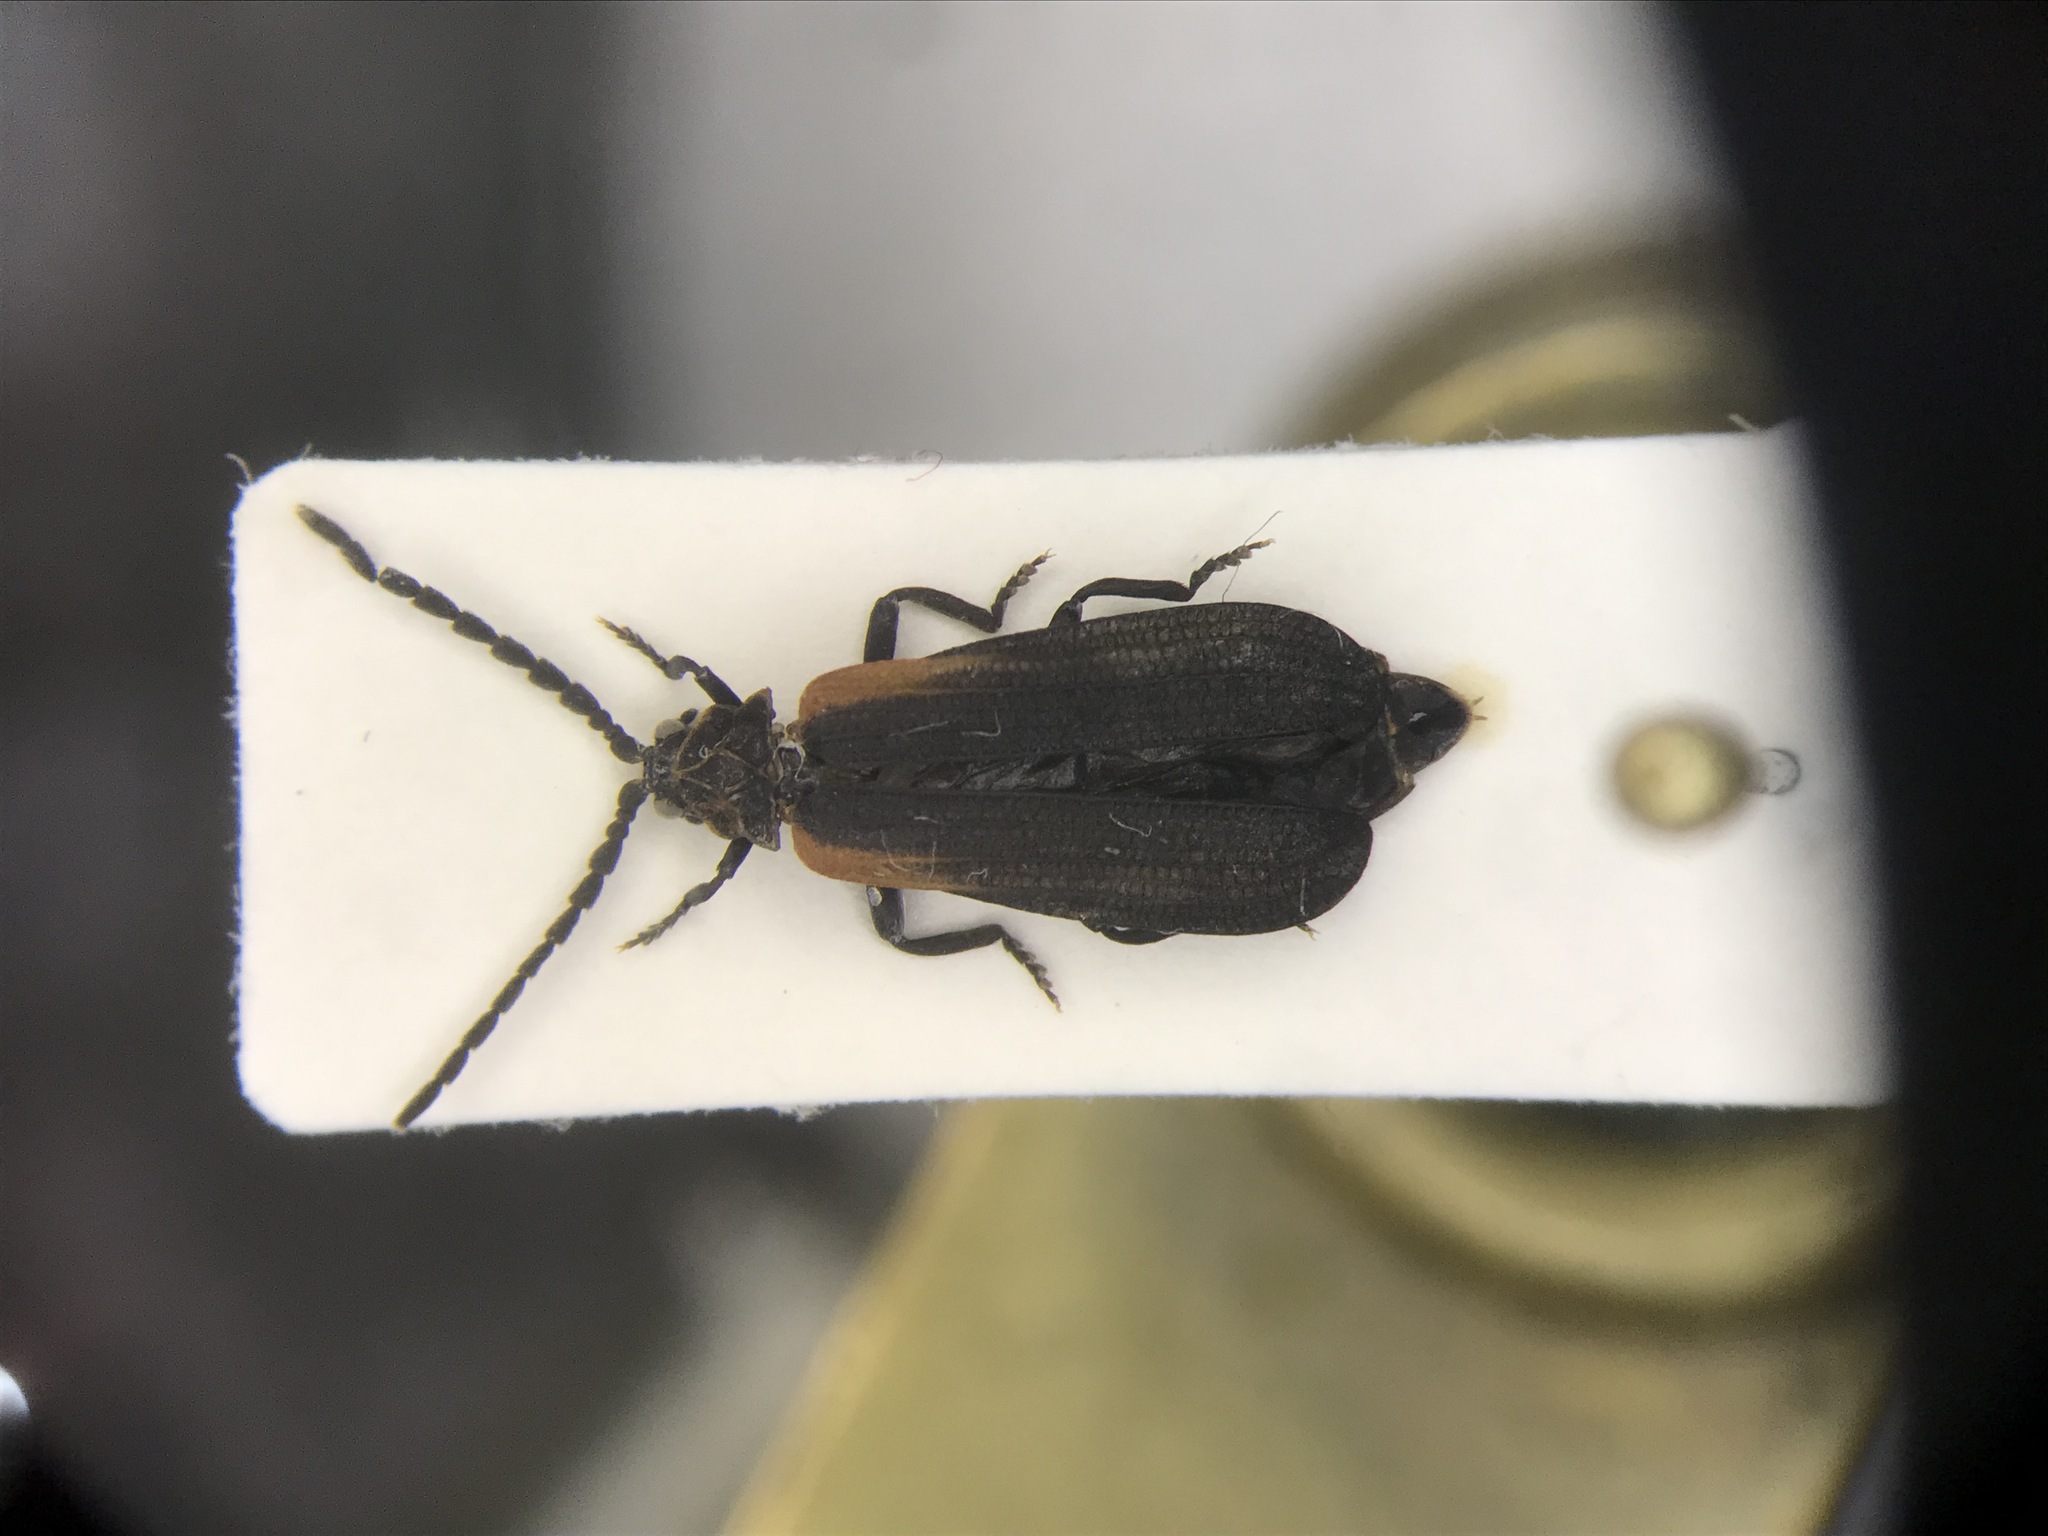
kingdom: Animalia
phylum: Arthropoda
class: Insecta
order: Coleoptera
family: Lycidae
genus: Greenarus
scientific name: Greenarus thoracicus
